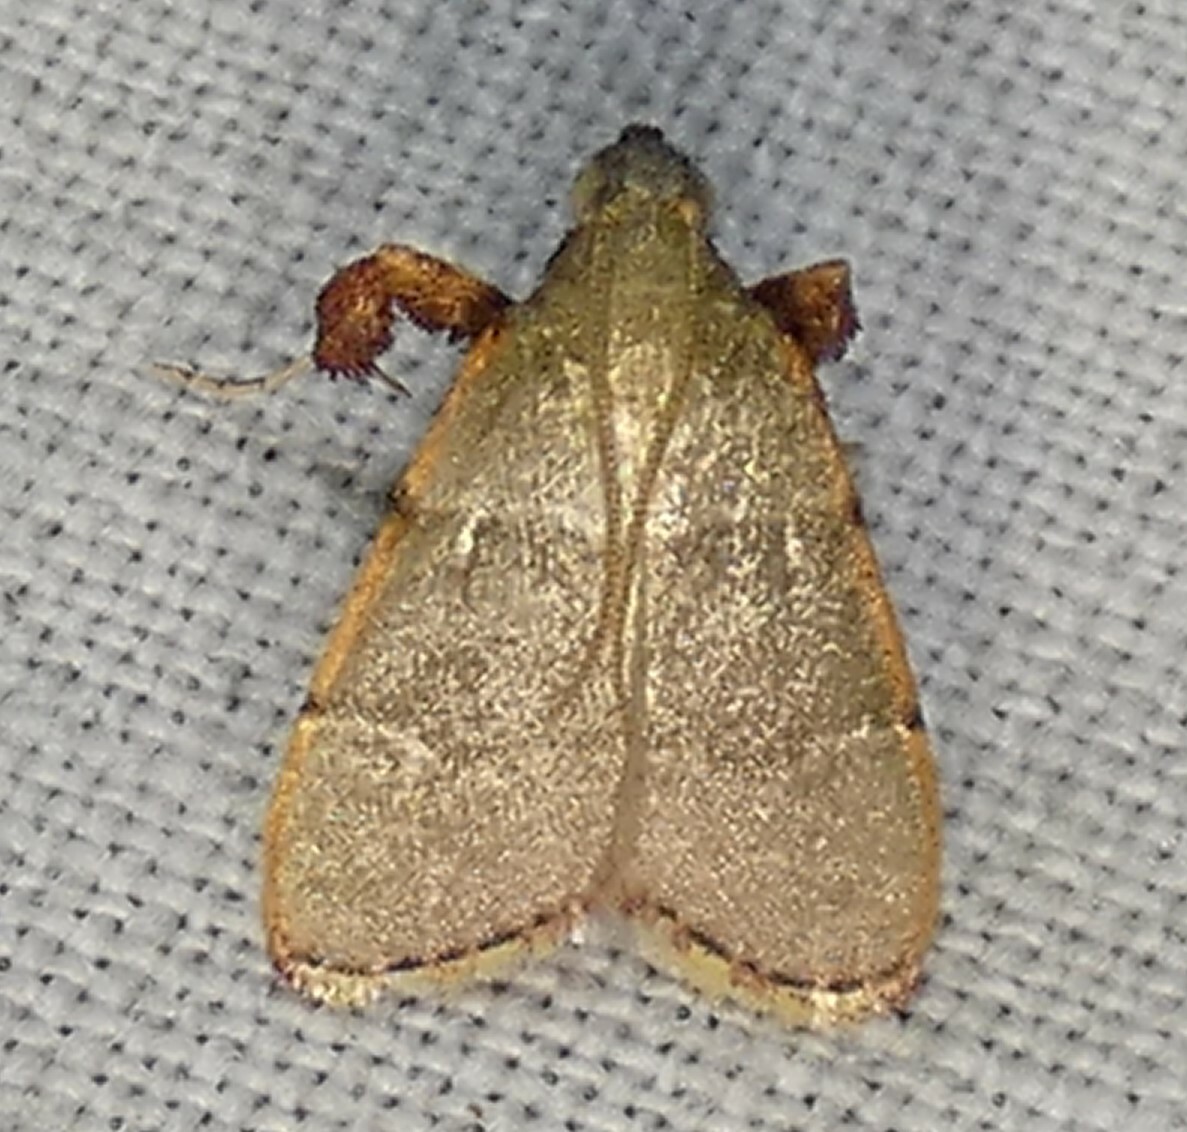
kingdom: Animalia
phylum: Arthropoda
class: Insecta
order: Lepidoptera
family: Pyralidae
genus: Basacallis
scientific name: Basacallis tarachodes
